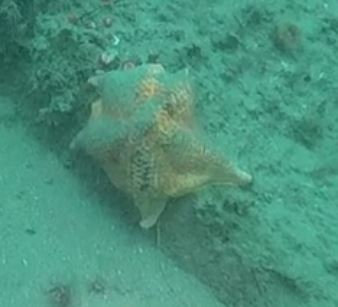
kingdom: Animalia
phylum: Echinodermata
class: Asteroidea
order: Valvatida
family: Asterinidae
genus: Patiria
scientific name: Patiria miniata
